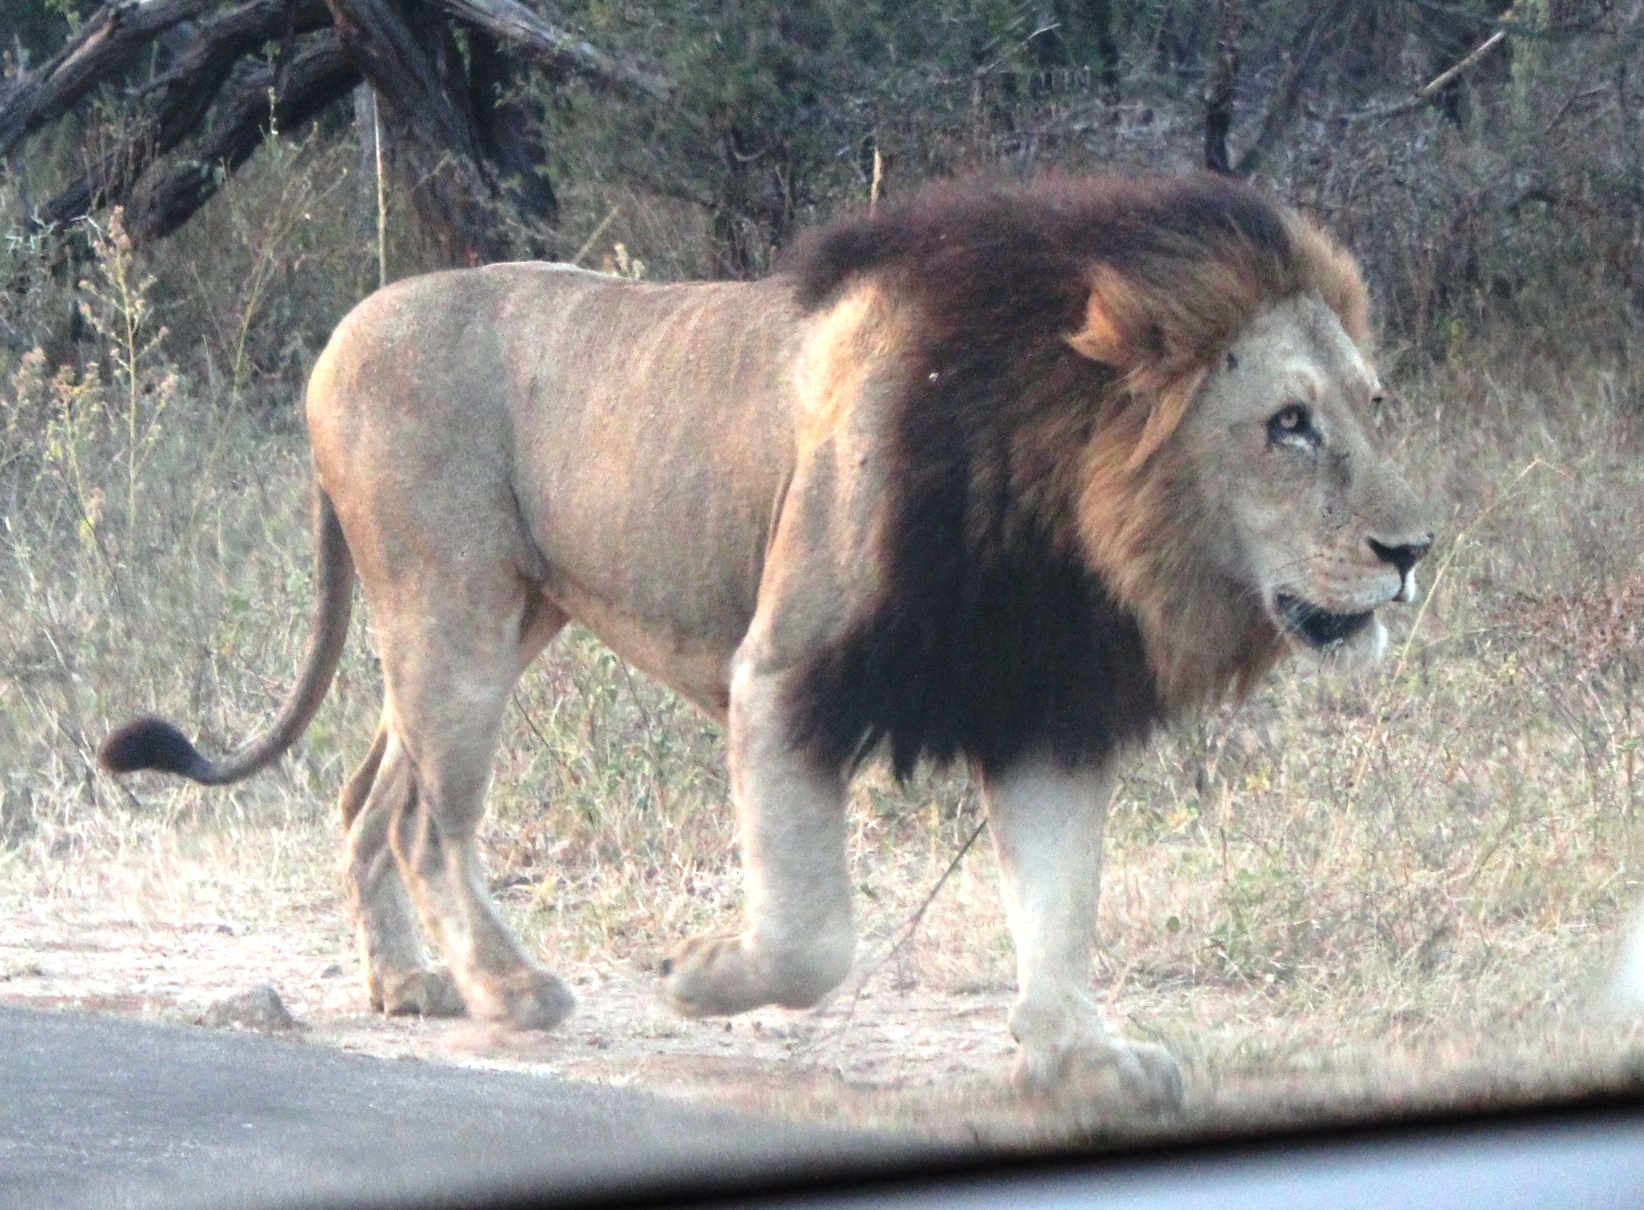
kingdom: Animalia
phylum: Chordata
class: Mammalia
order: Carnivora
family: Felidae
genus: Panthera
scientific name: Panthera leo
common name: Lion
